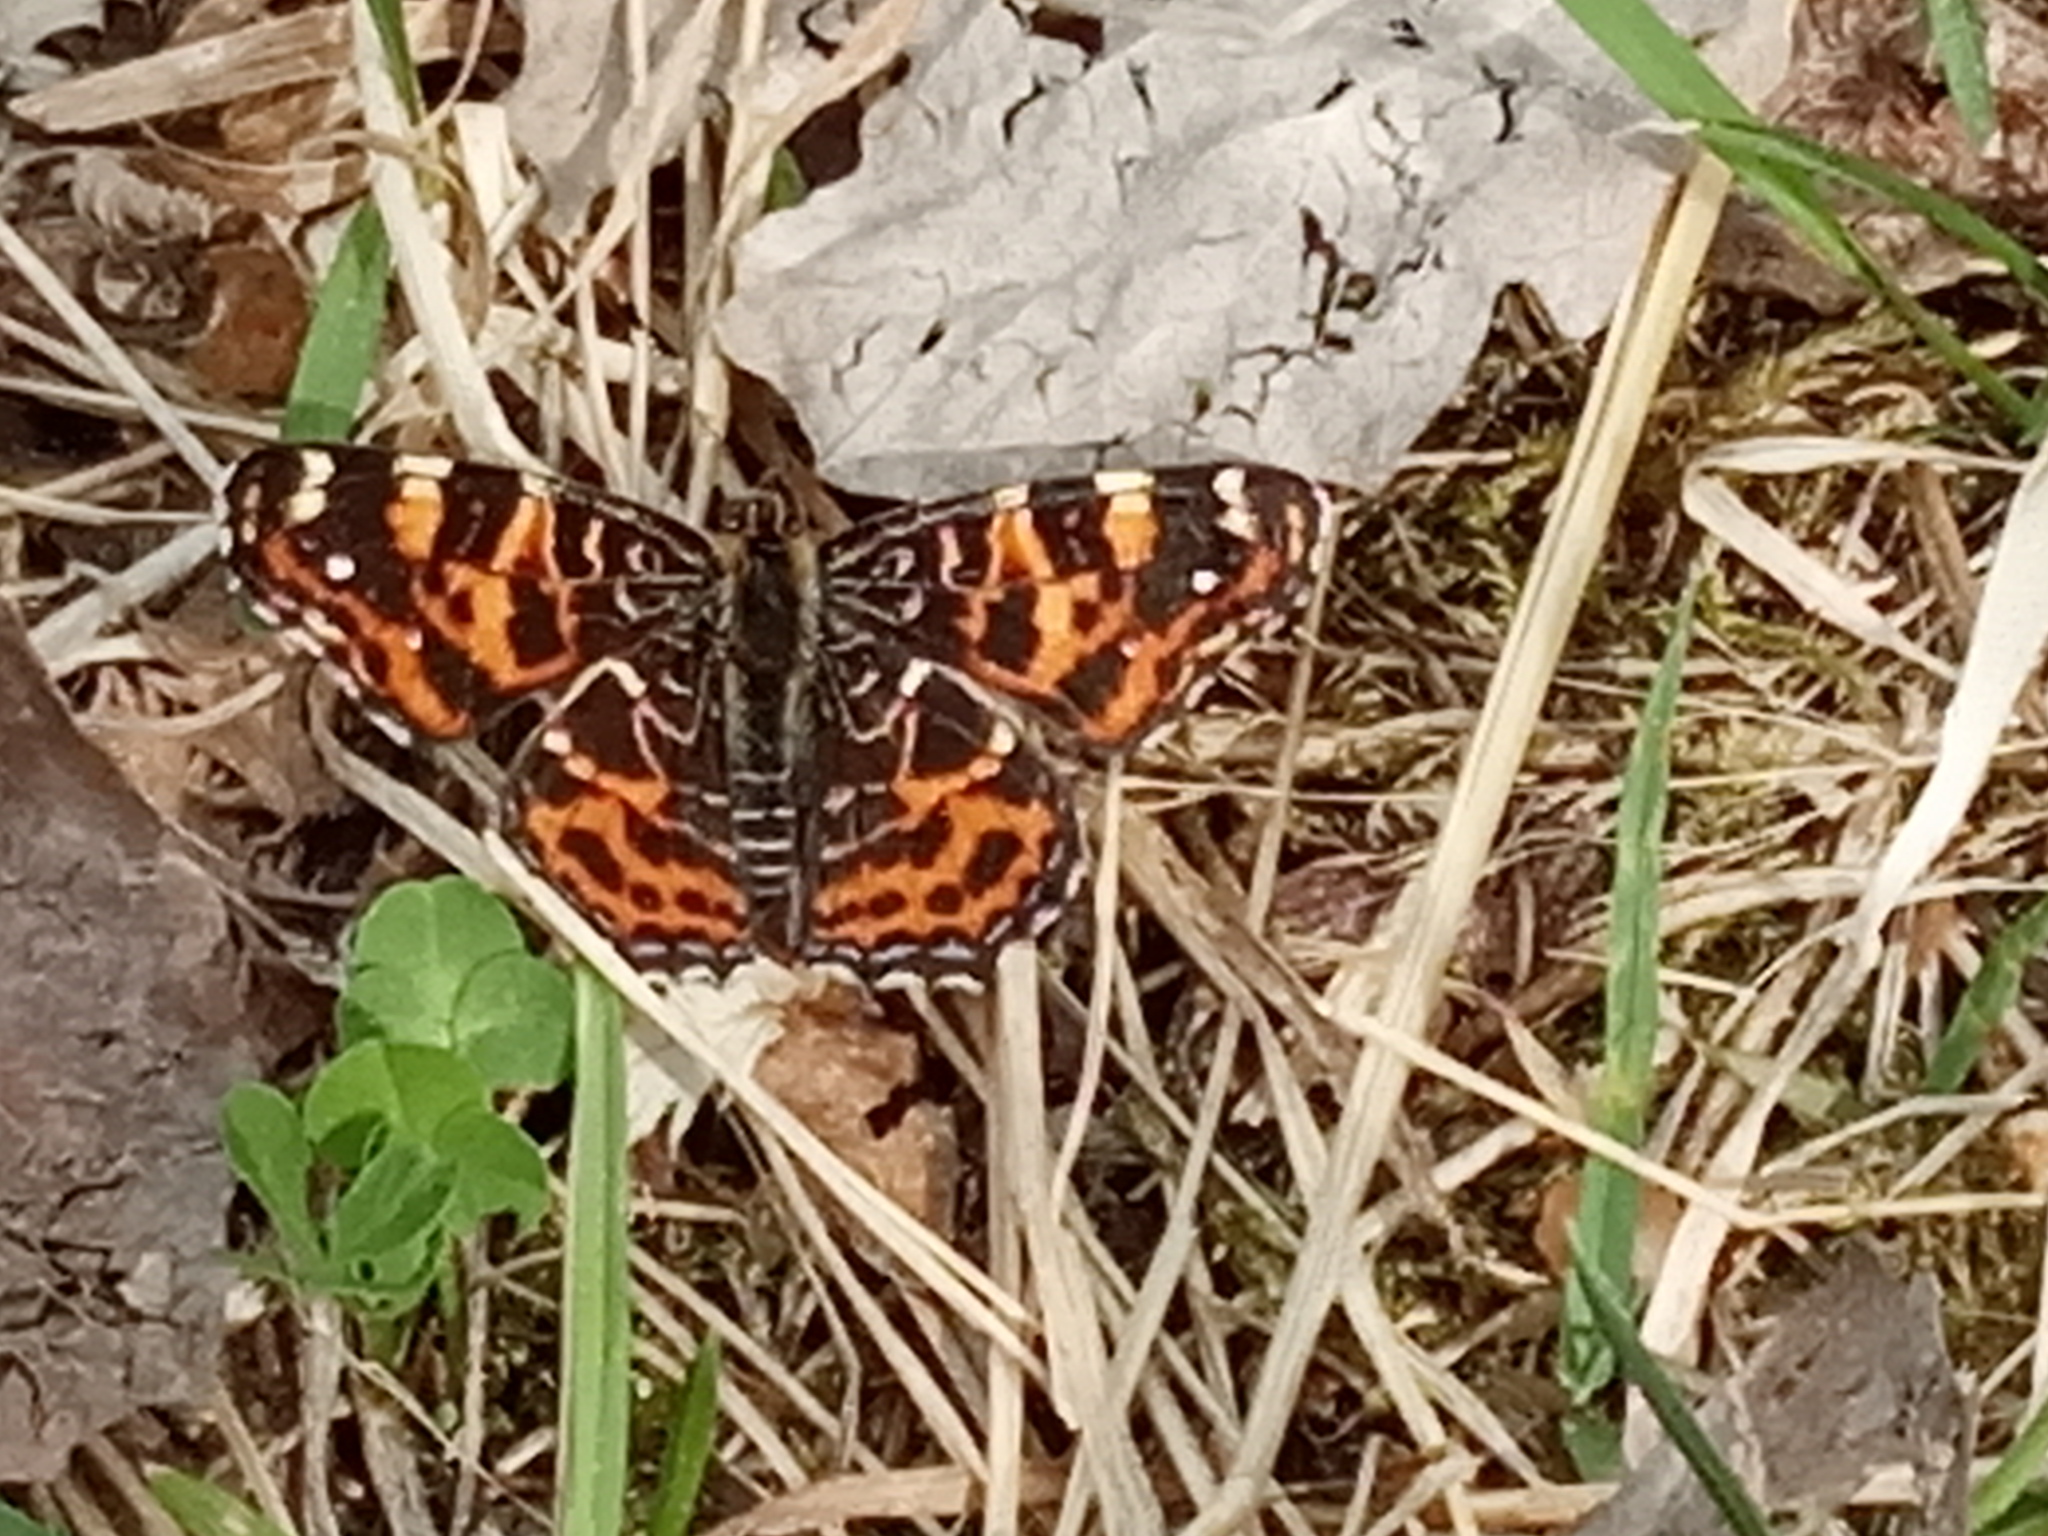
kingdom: Animalia
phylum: Arthropoda
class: Insecta
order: Lepidoptera
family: Nymphalidae
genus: Araschnia
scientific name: Araschnia levana
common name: Map butterfly
